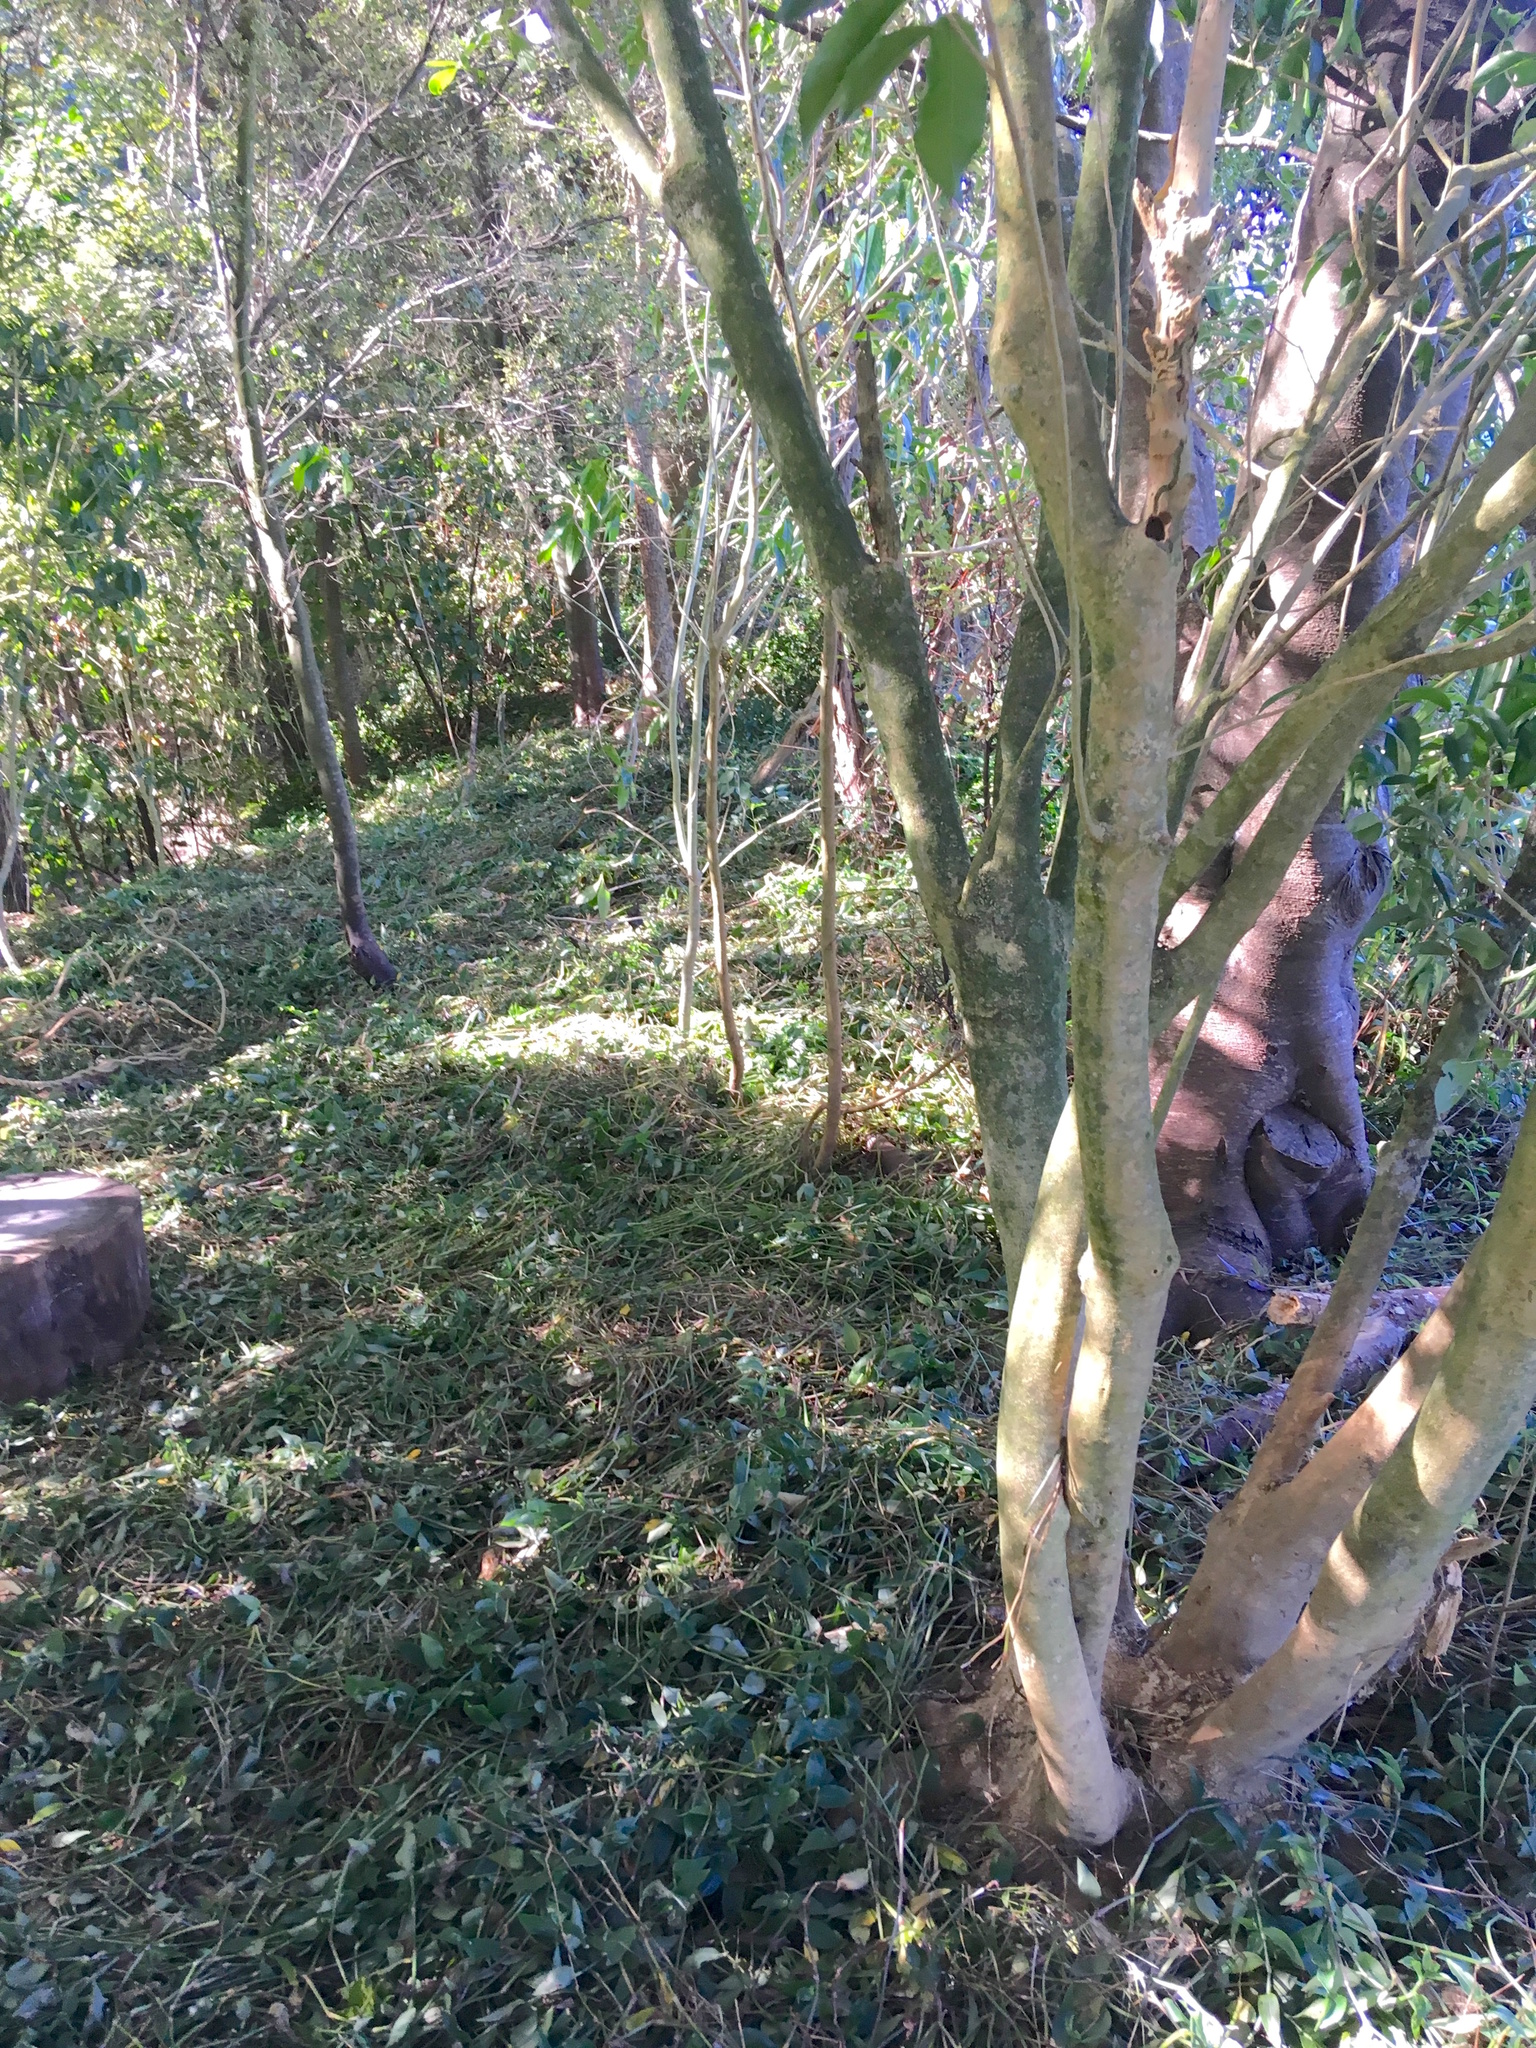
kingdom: Plantae
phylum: Tracheophyta
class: Liliopsida
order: Commelinales
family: Commelinaceae
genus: Tradescantia
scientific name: Tradescantia fluminensis
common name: Wandering-jew
